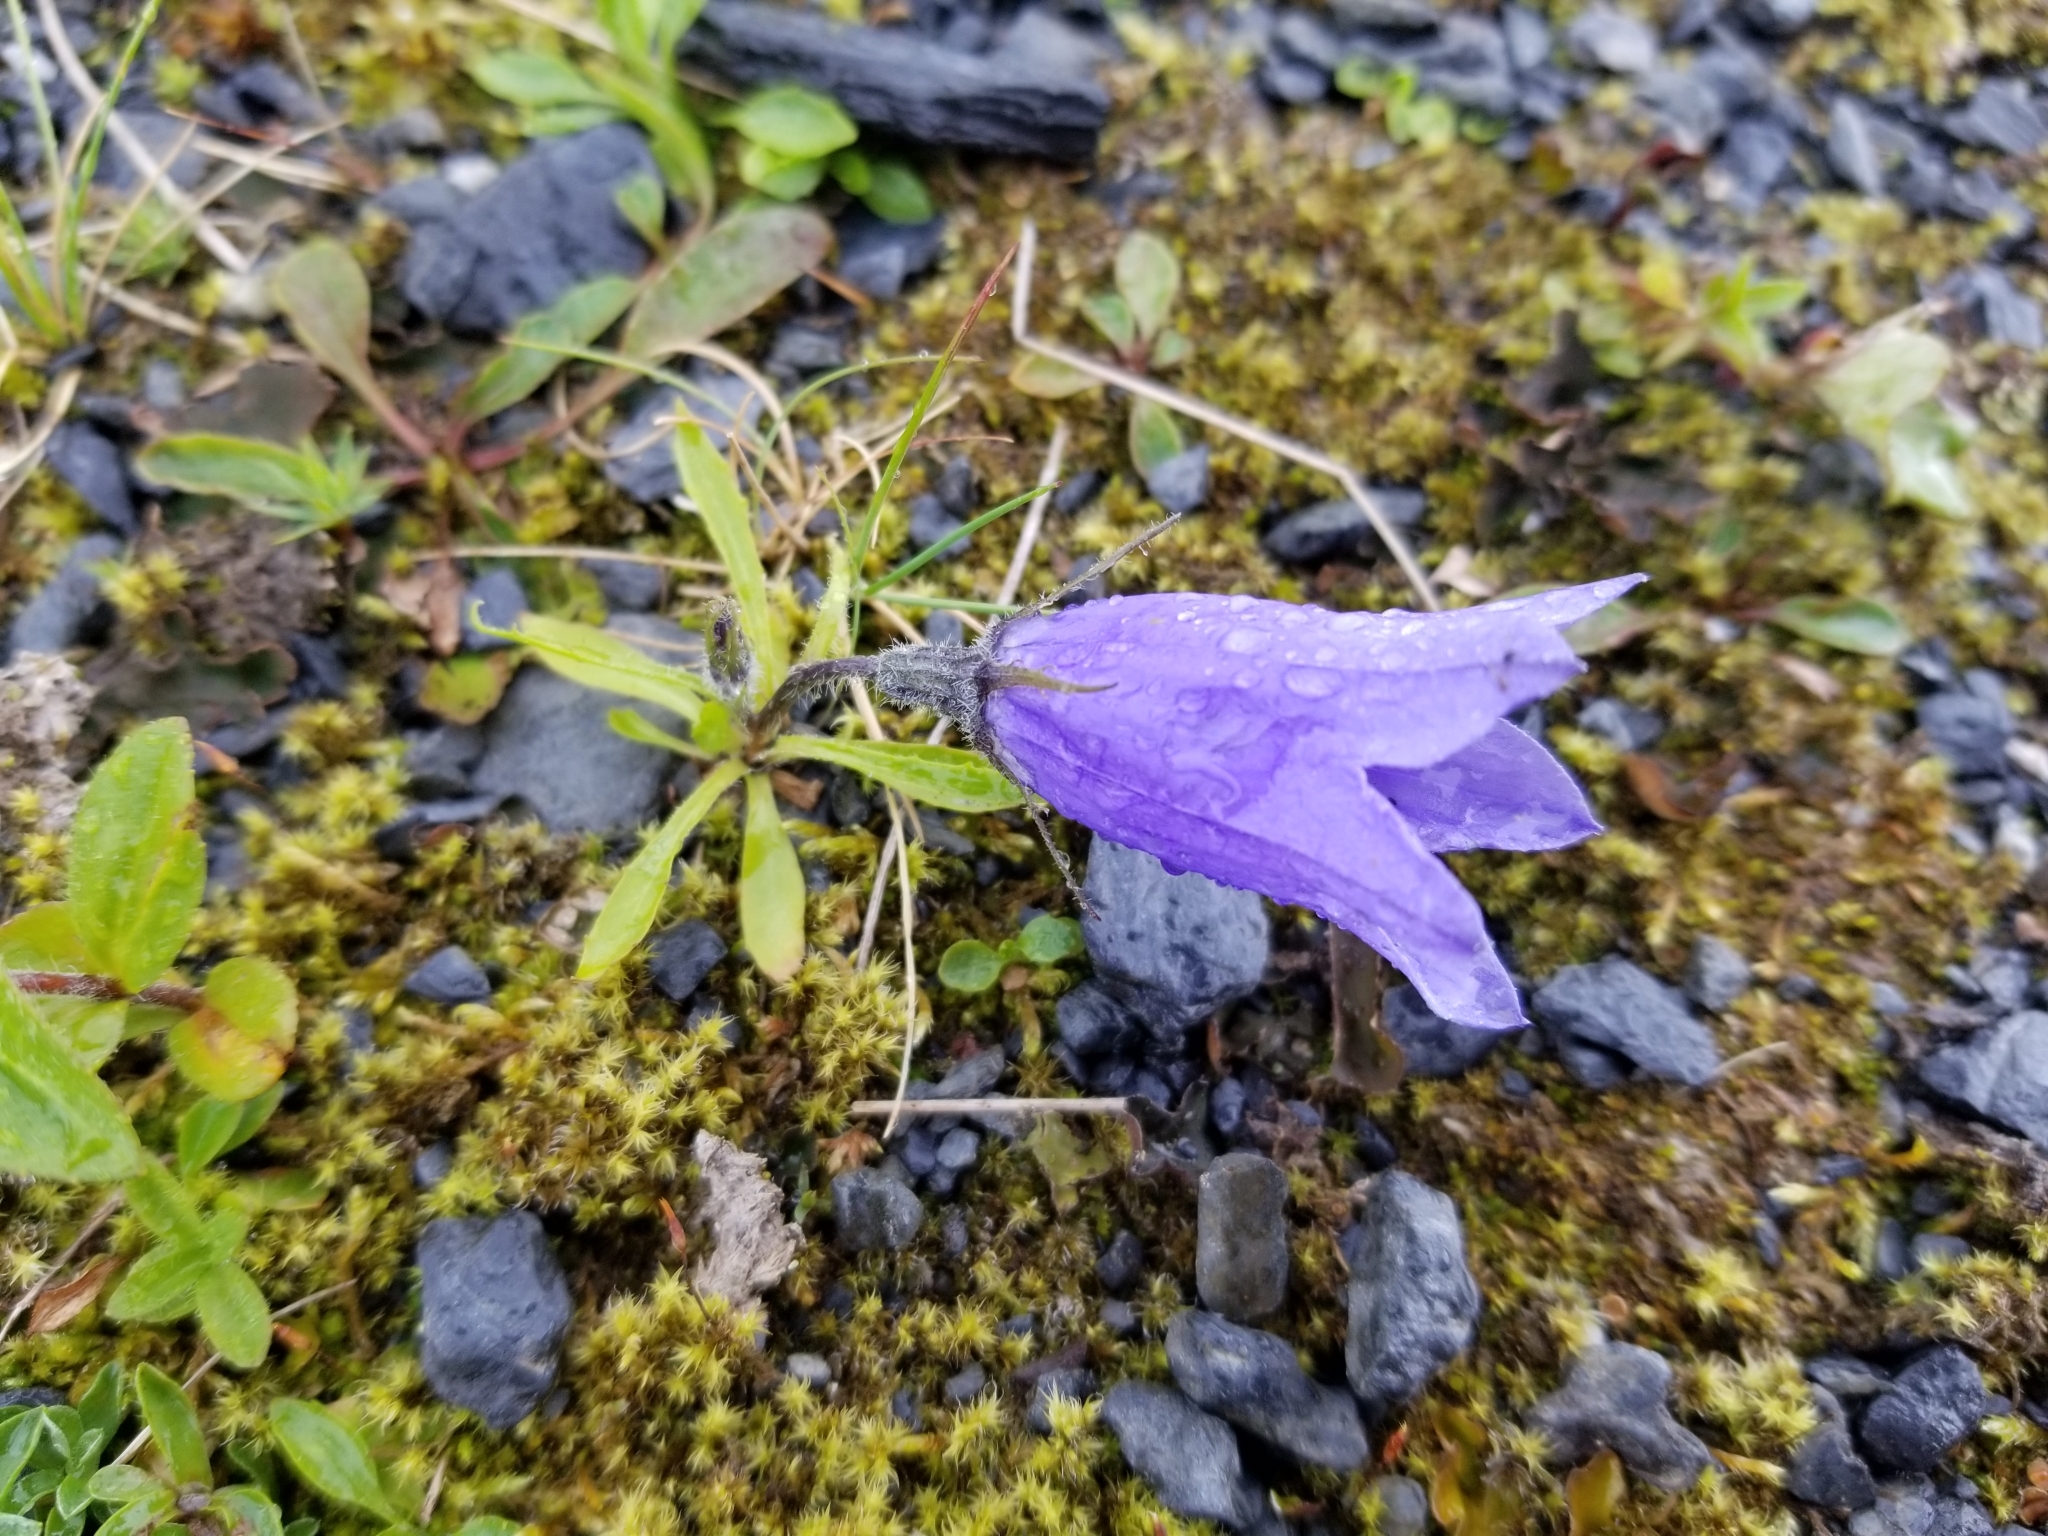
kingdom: Plantae
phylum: Tracheophyta
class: Magnoliopsida
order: Asterales
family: Campanulaceae
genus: Campanula
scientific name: Campanula lasiocarpa
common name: Mountain harebell
